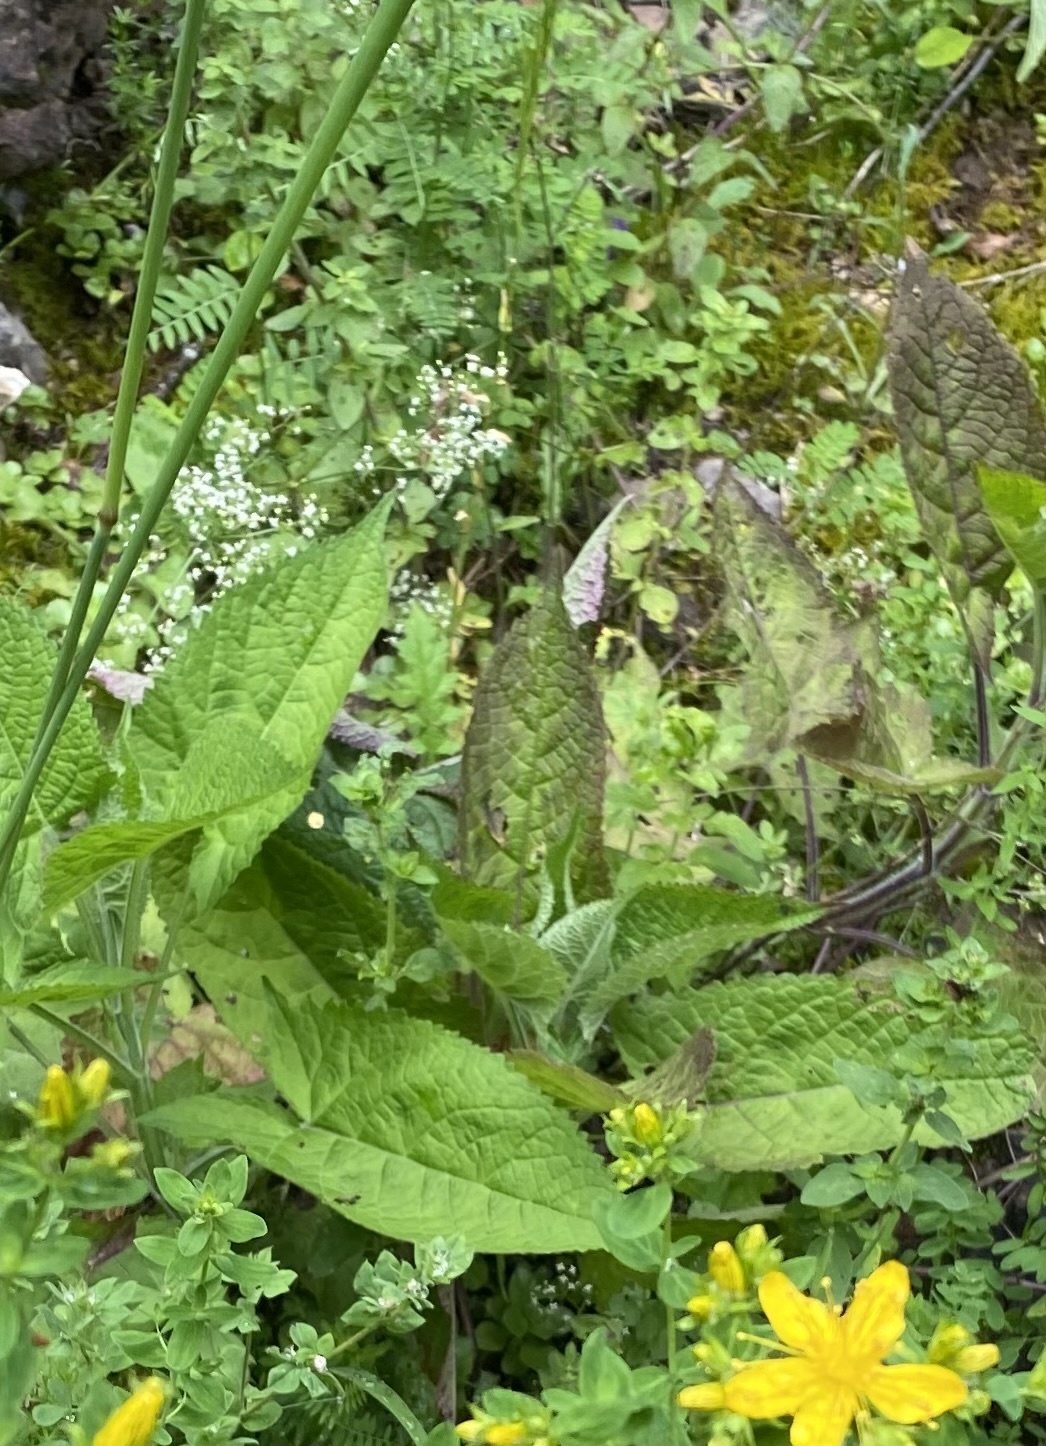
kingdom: Plantae
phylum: Tracheophyta
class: Magnoliopsida
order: Lamiales
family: Lamiaceae
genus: Salvia
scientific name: Salvia glutinosa
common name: Sticky clary
